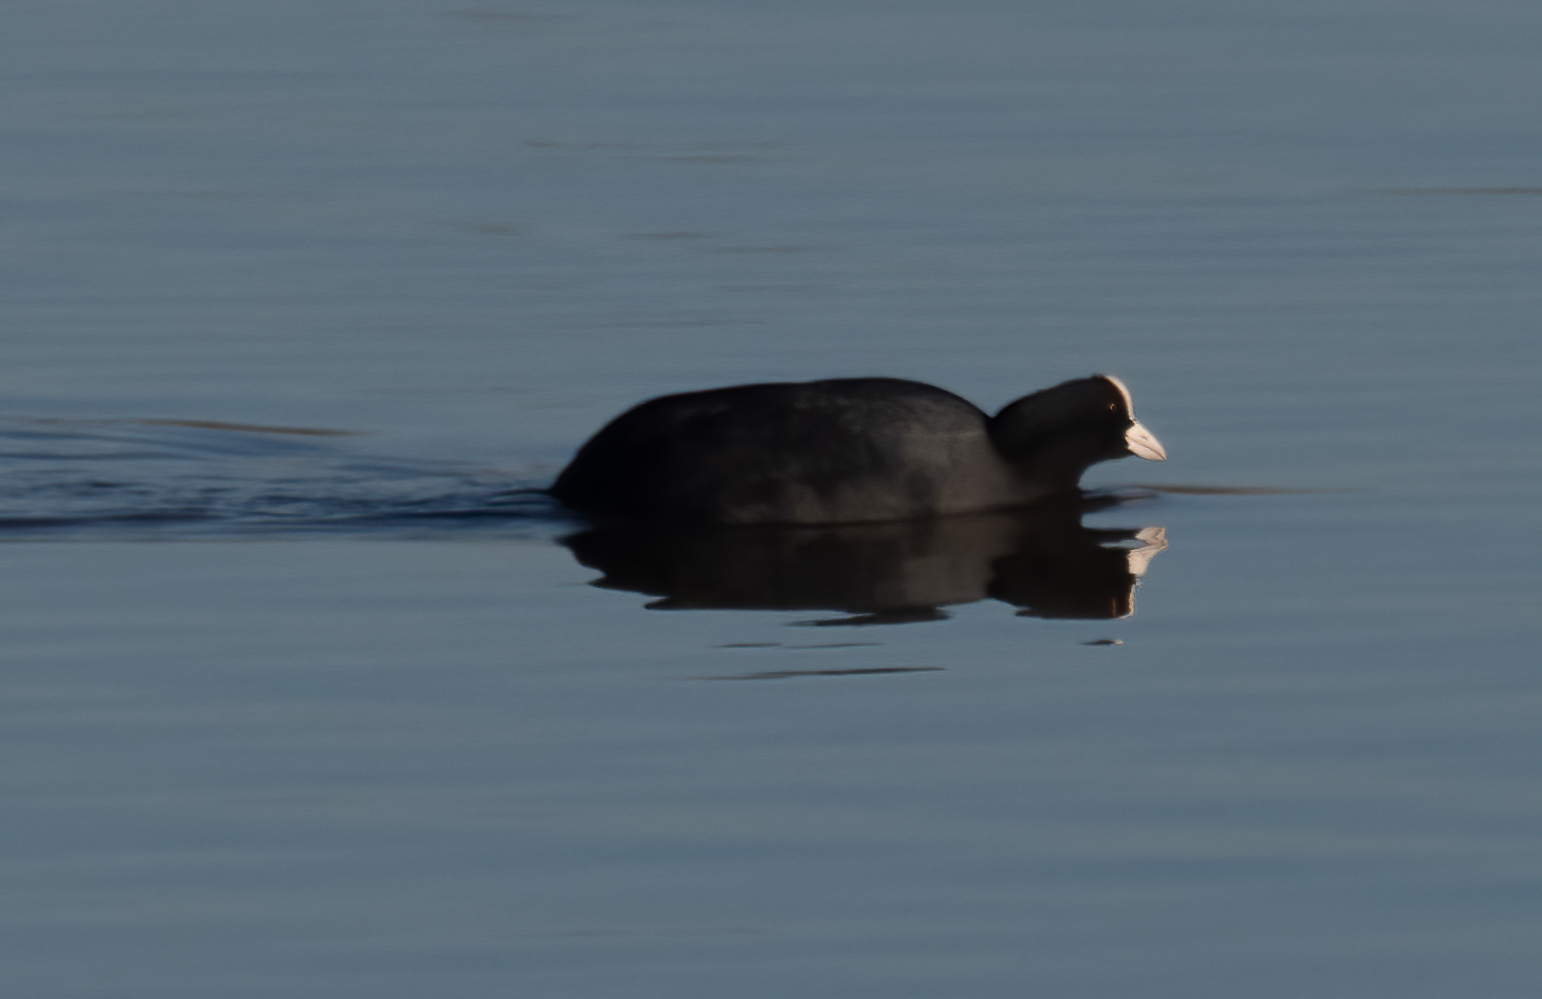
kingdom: Animalia
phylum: Chordata
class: Aves
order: Gruiformes
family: Rallidae
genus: Fulica
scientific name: Fulica atra
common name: Eurasian coot
